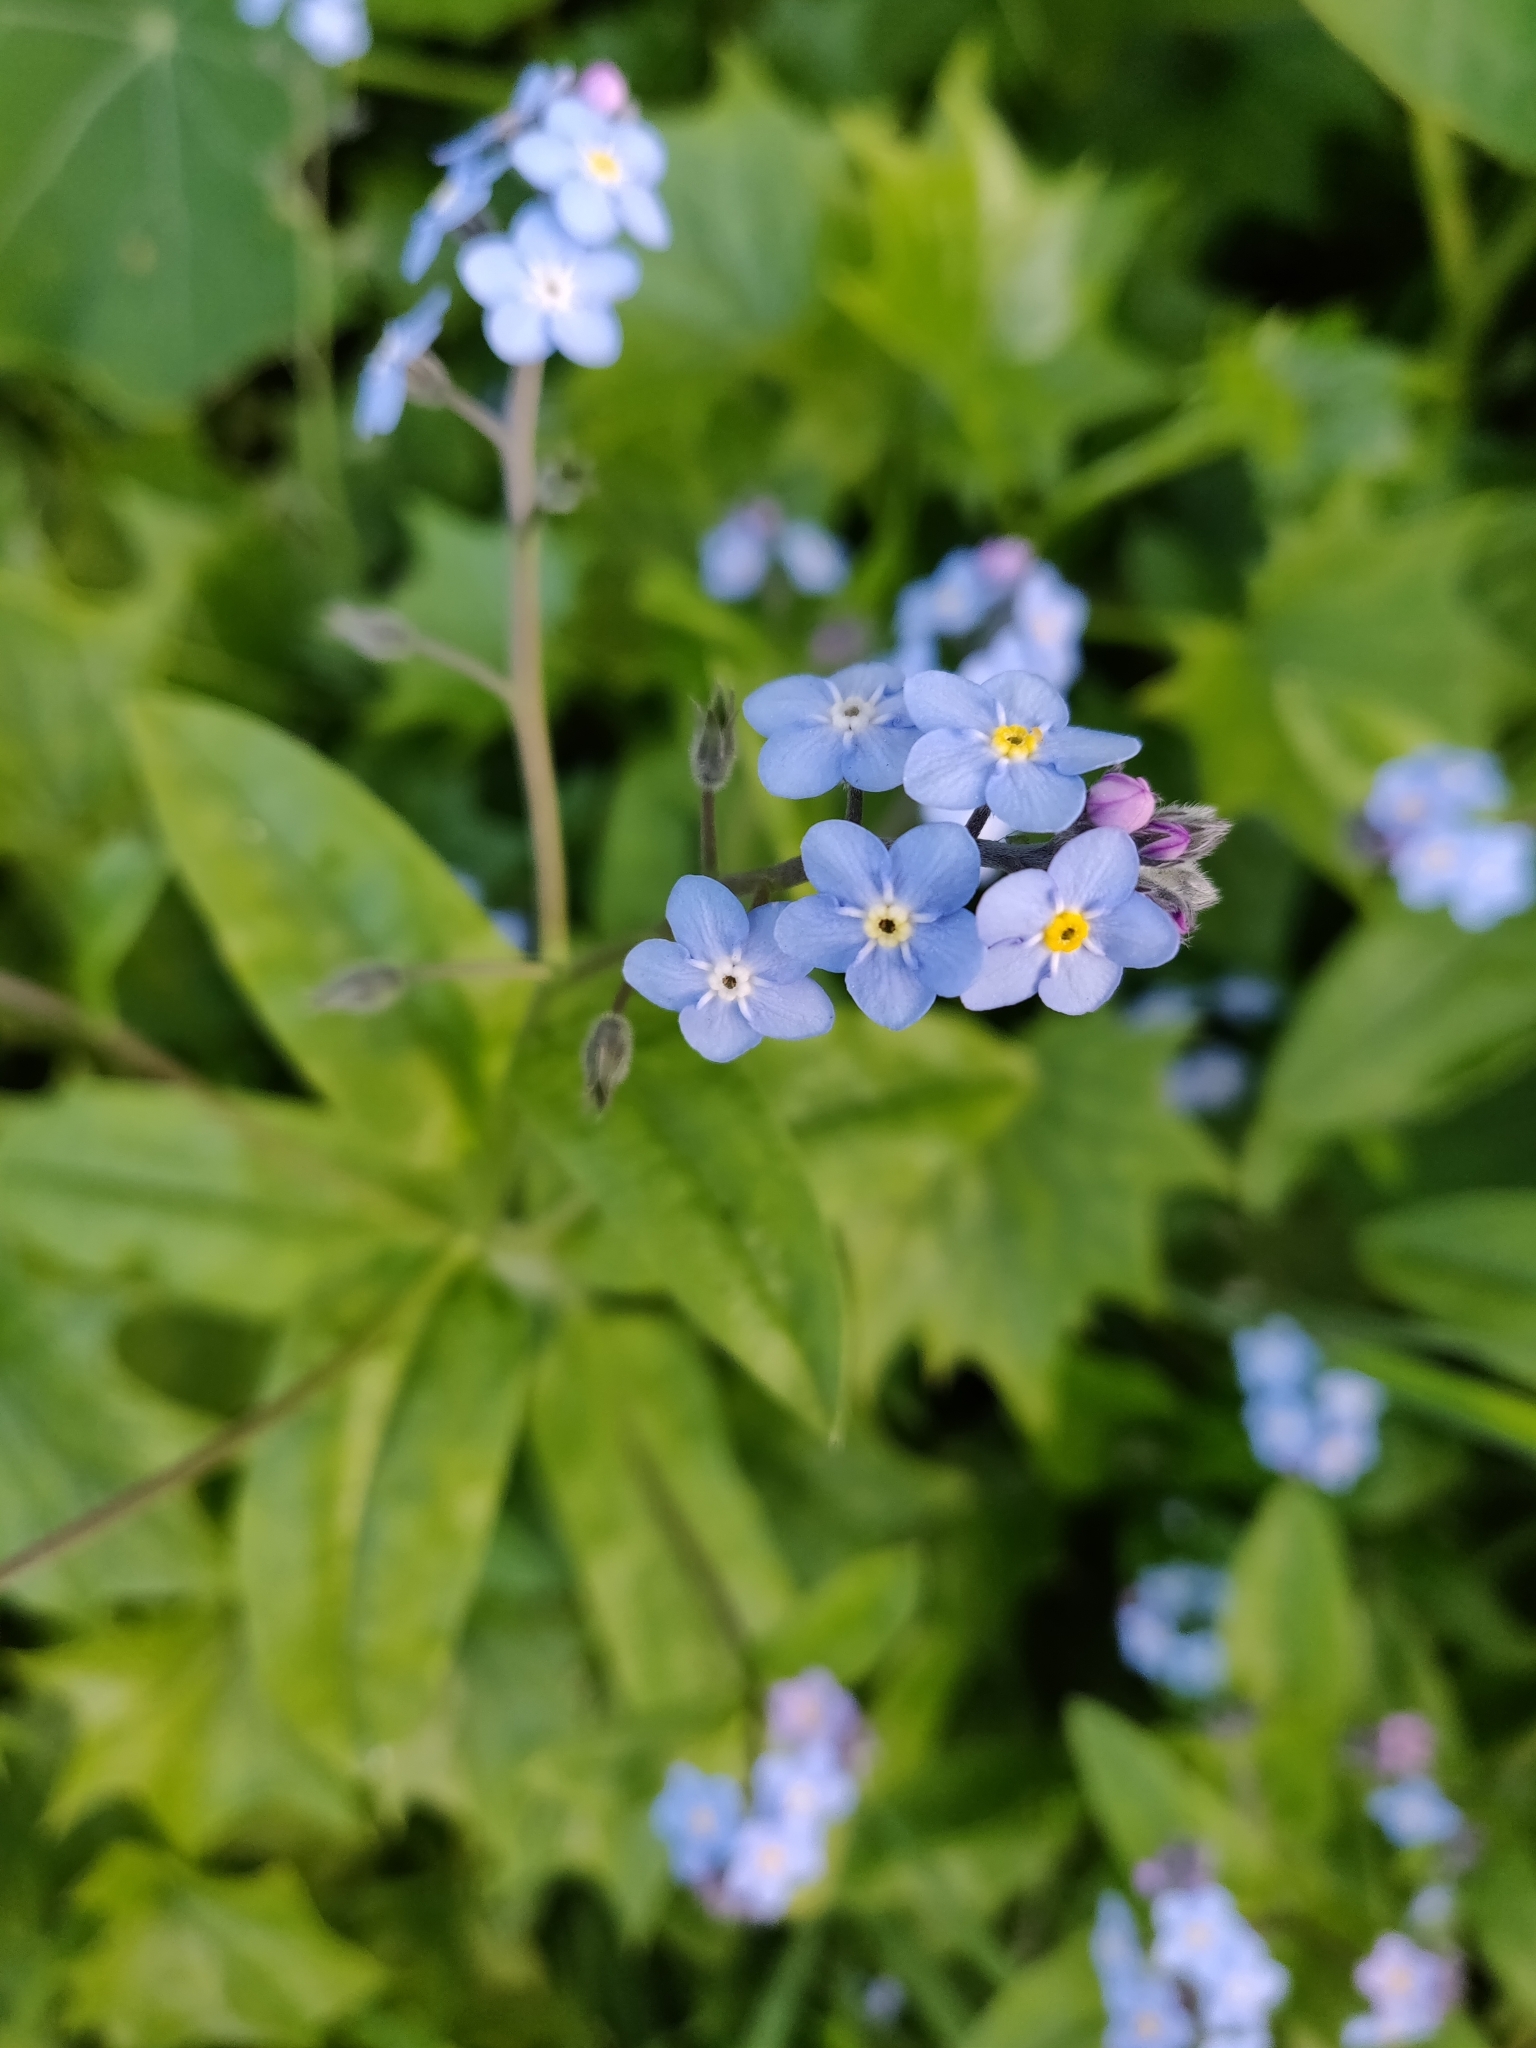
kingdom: Plantae
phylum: Tracheophyta
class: Magnoliopsida
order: Boraginales
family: Boraginaceae
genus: Myosotis
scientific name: Myosotis latifolia
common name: Broadleaf forget-me-not
